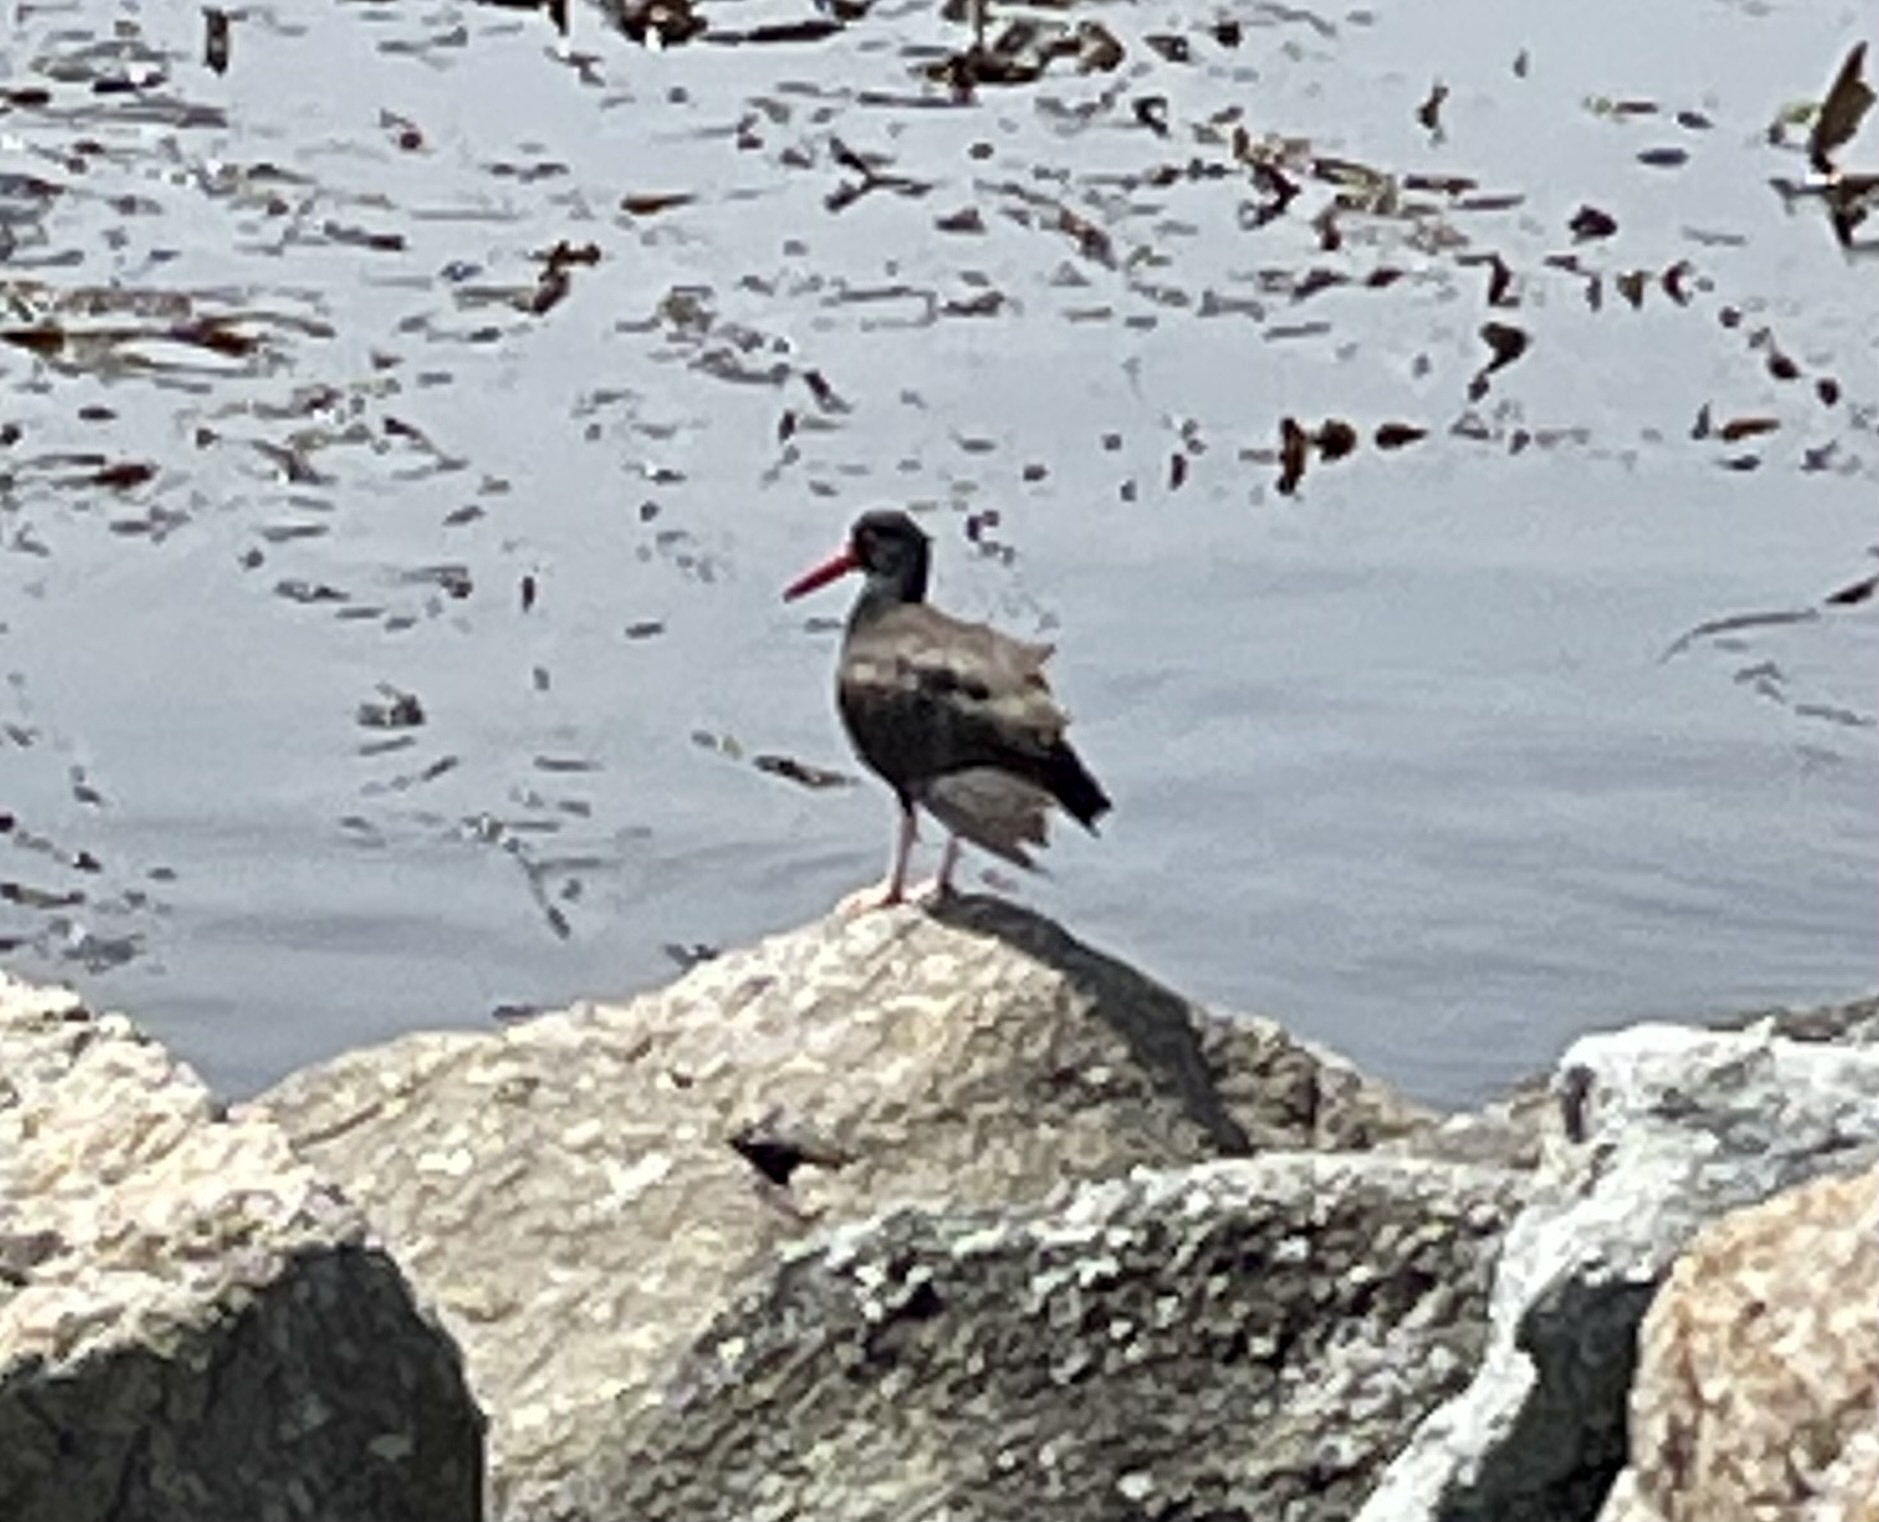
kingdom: Animalia
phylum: Chordata
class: Aves
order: Charadriiformes
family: Haematopodidae
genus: Haematopus
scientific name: Haematopus bachmani
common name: Black oystercatcher
